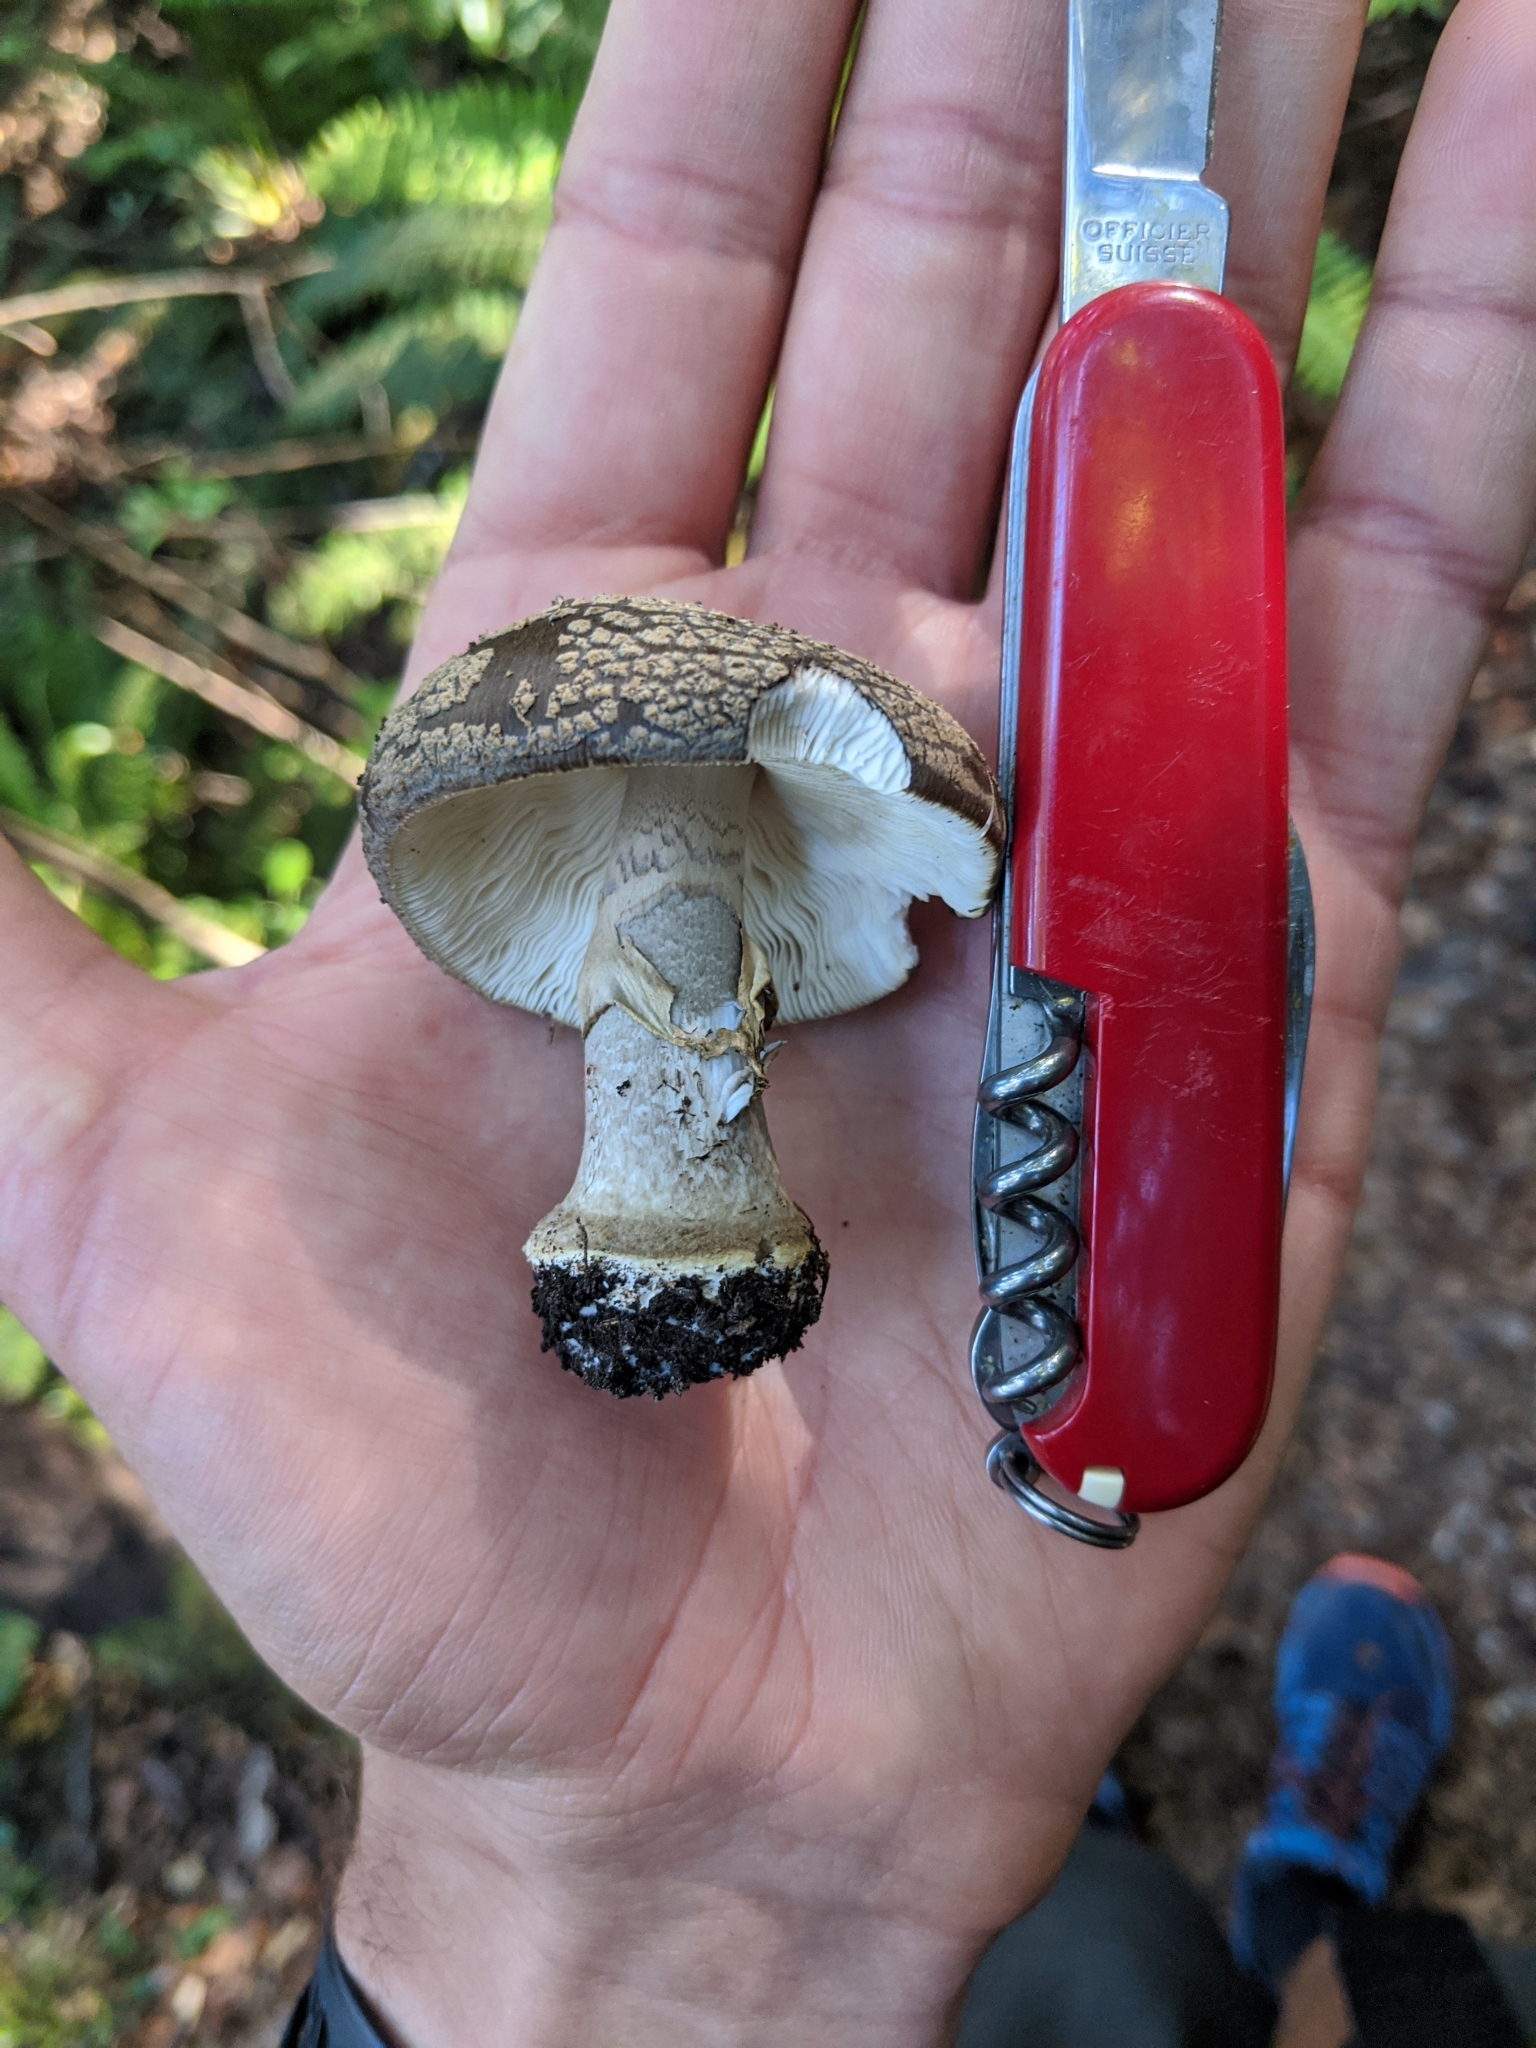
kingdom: Fungi
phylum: Basidiomycota
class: Agaricomycetes
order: Agaricales
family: Amanitaceae
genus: Amanita
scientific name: Amanita nothofagi
